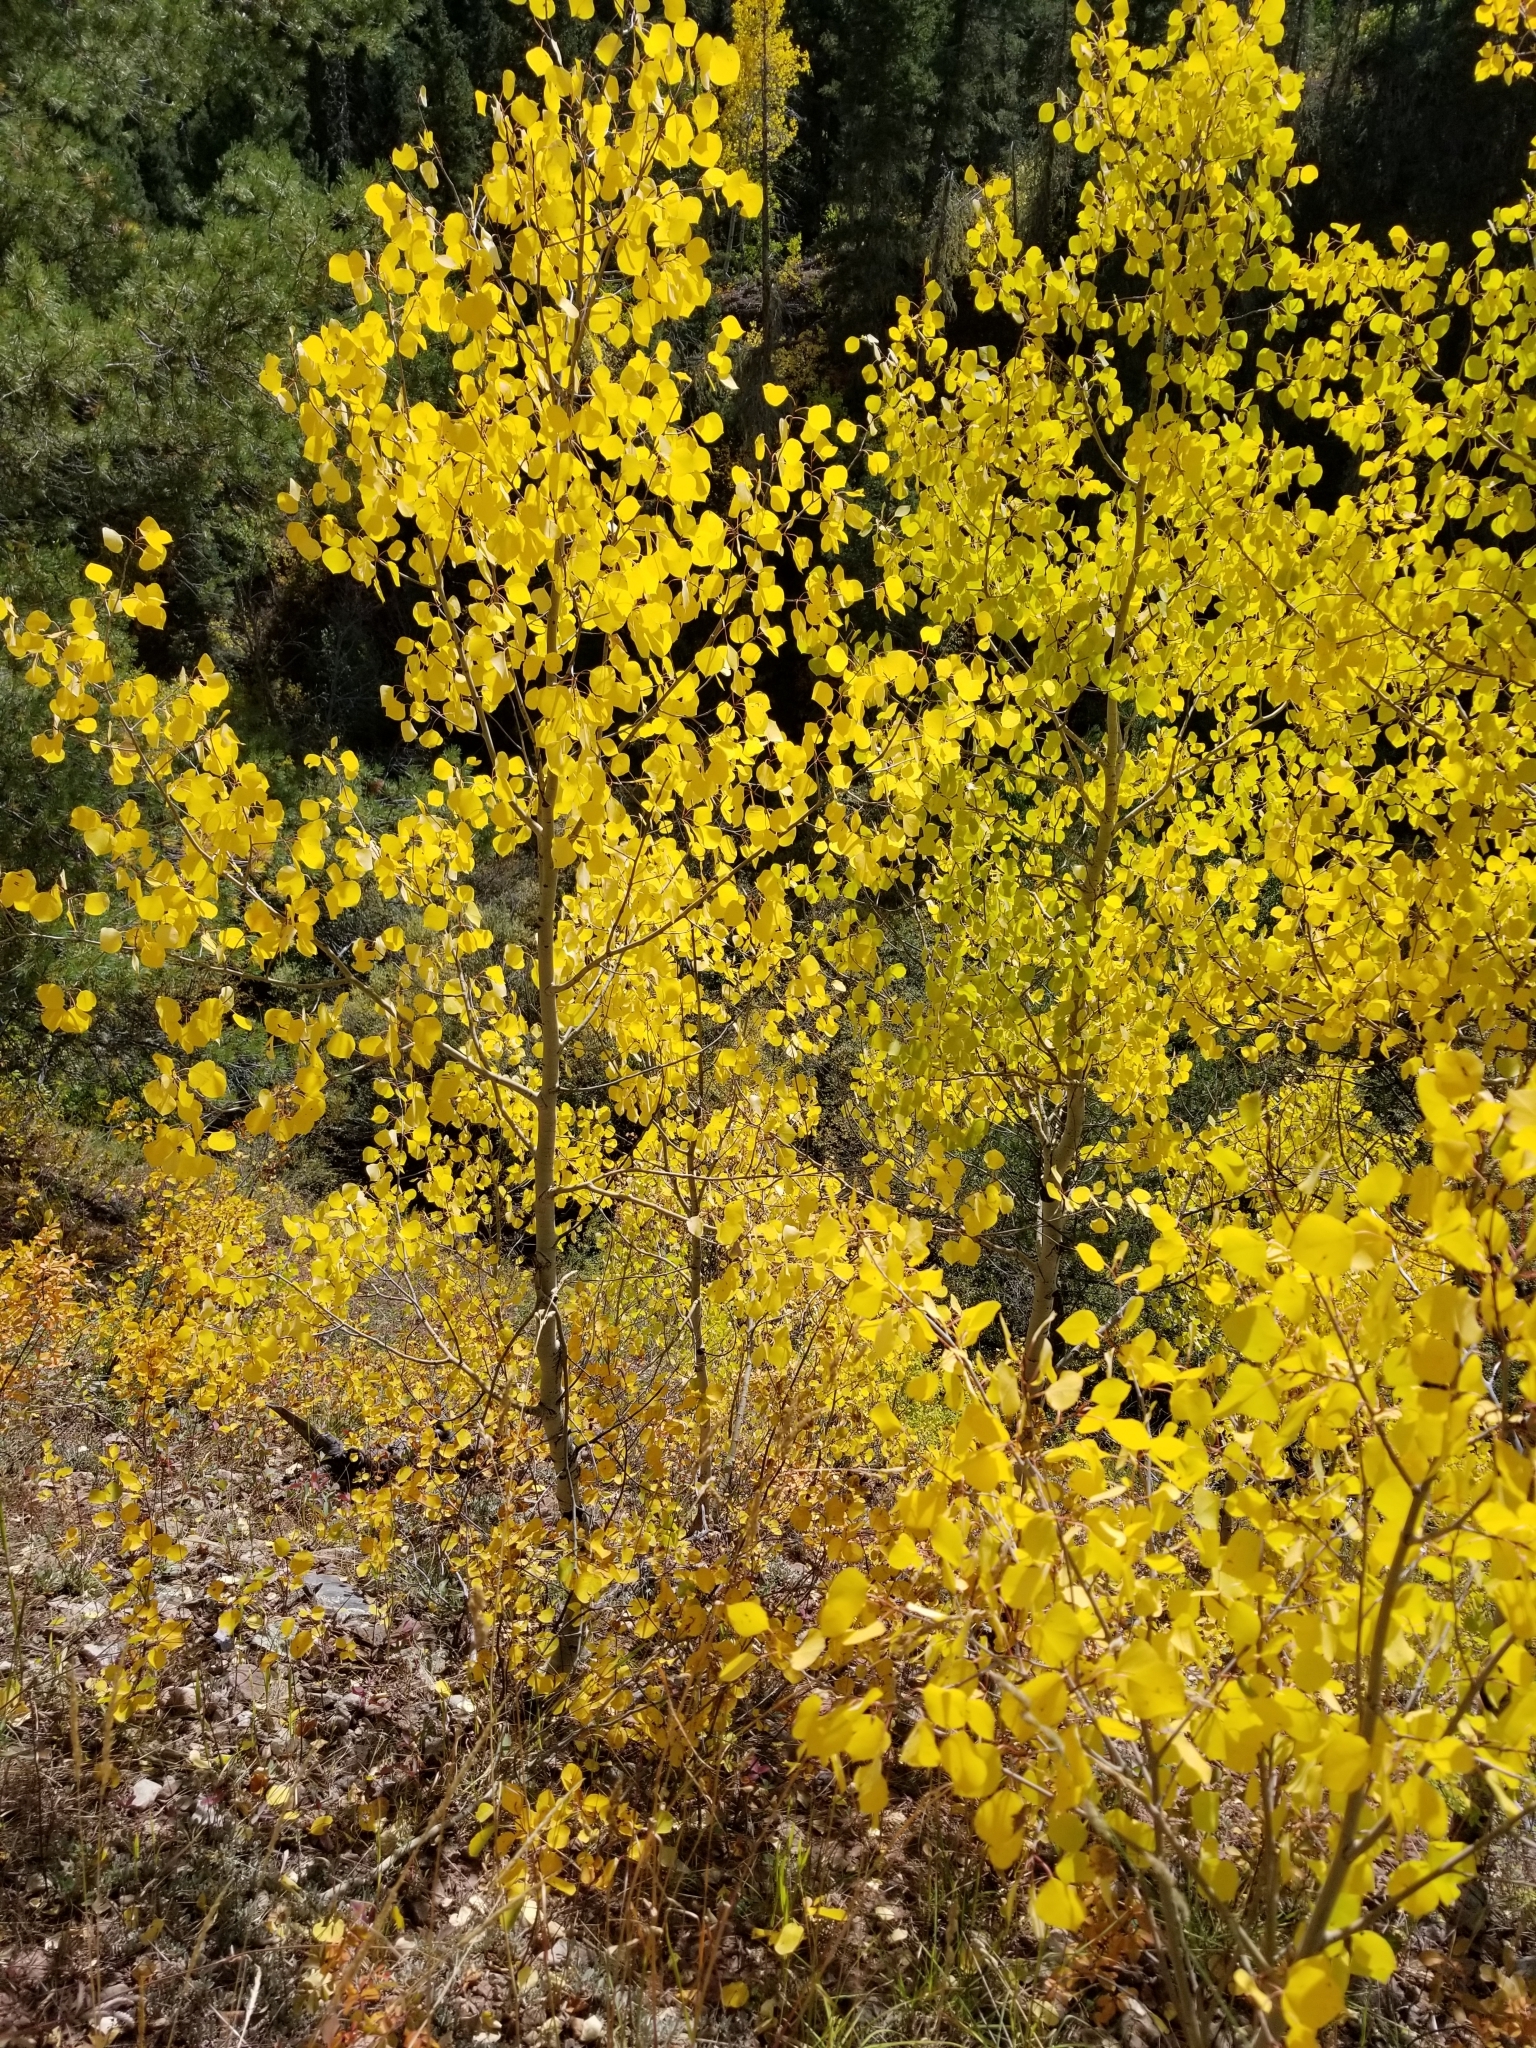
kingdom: Plantae
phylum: Tracheophyta
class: Magnoliopsida
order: Malpighiales
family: Salicaceae
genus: Populus
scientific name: Populus tremuloides
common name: Quaking aspen
